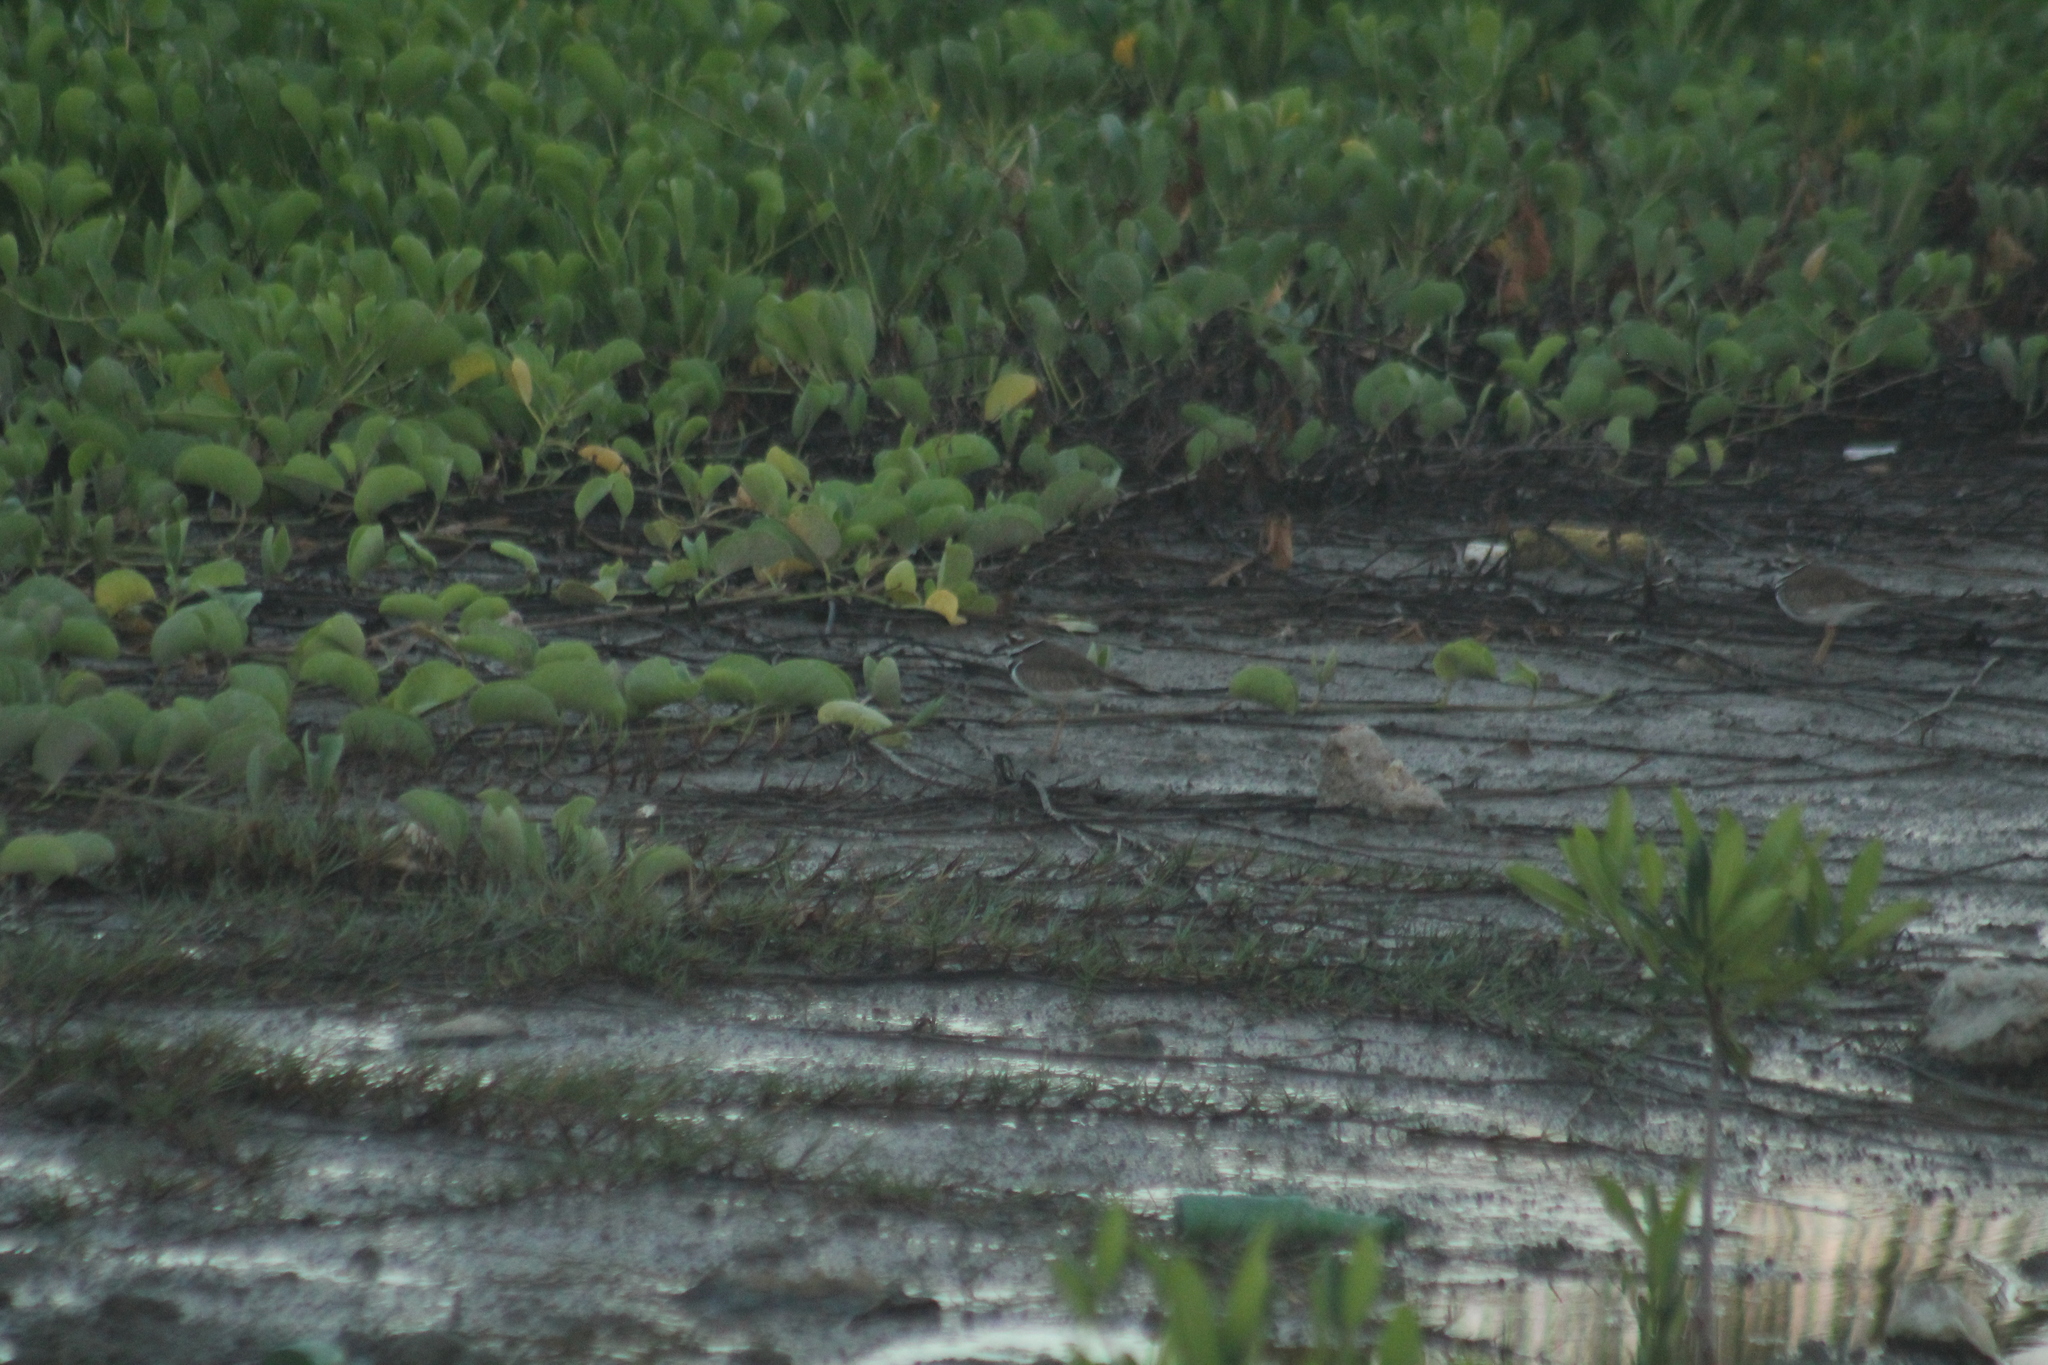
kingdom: Animalia
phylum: Chordata
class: Aves
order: Charadriiformes
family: Charadriidae
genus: Charadrius
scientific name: Charadrius vociferus
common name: Killdeer
